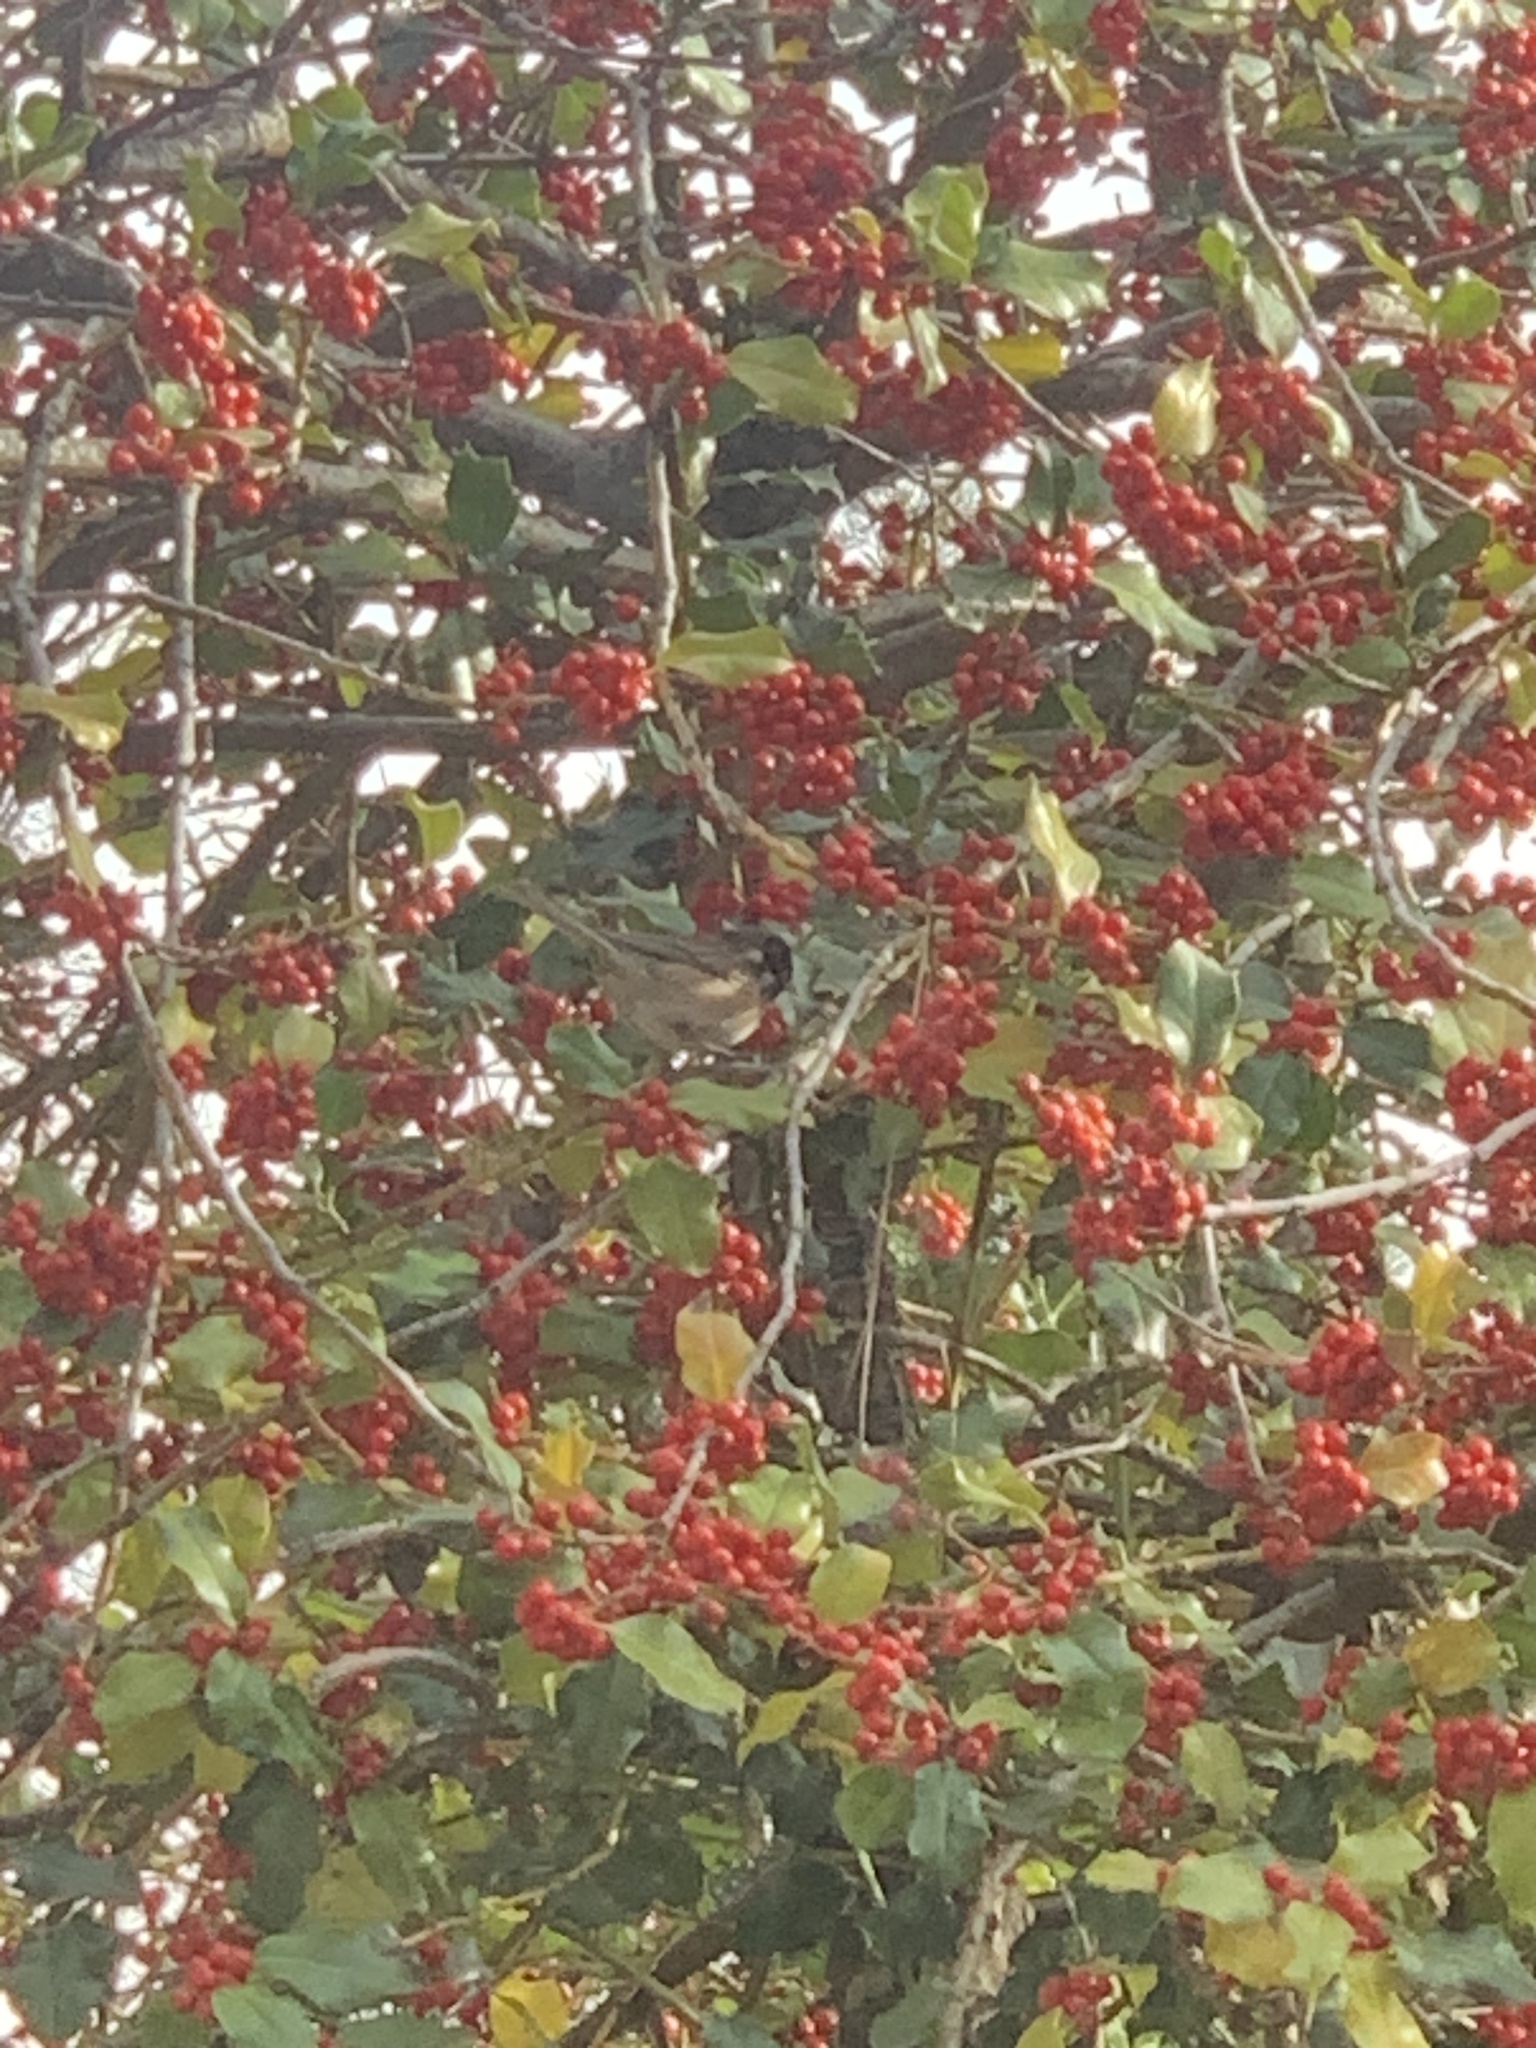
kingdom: Animalia
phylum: Chordata
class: Aves
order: Passeriformes
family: Passerellidae
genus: Junco
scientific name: Junco hyemalis
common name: Dark-eyed junco
